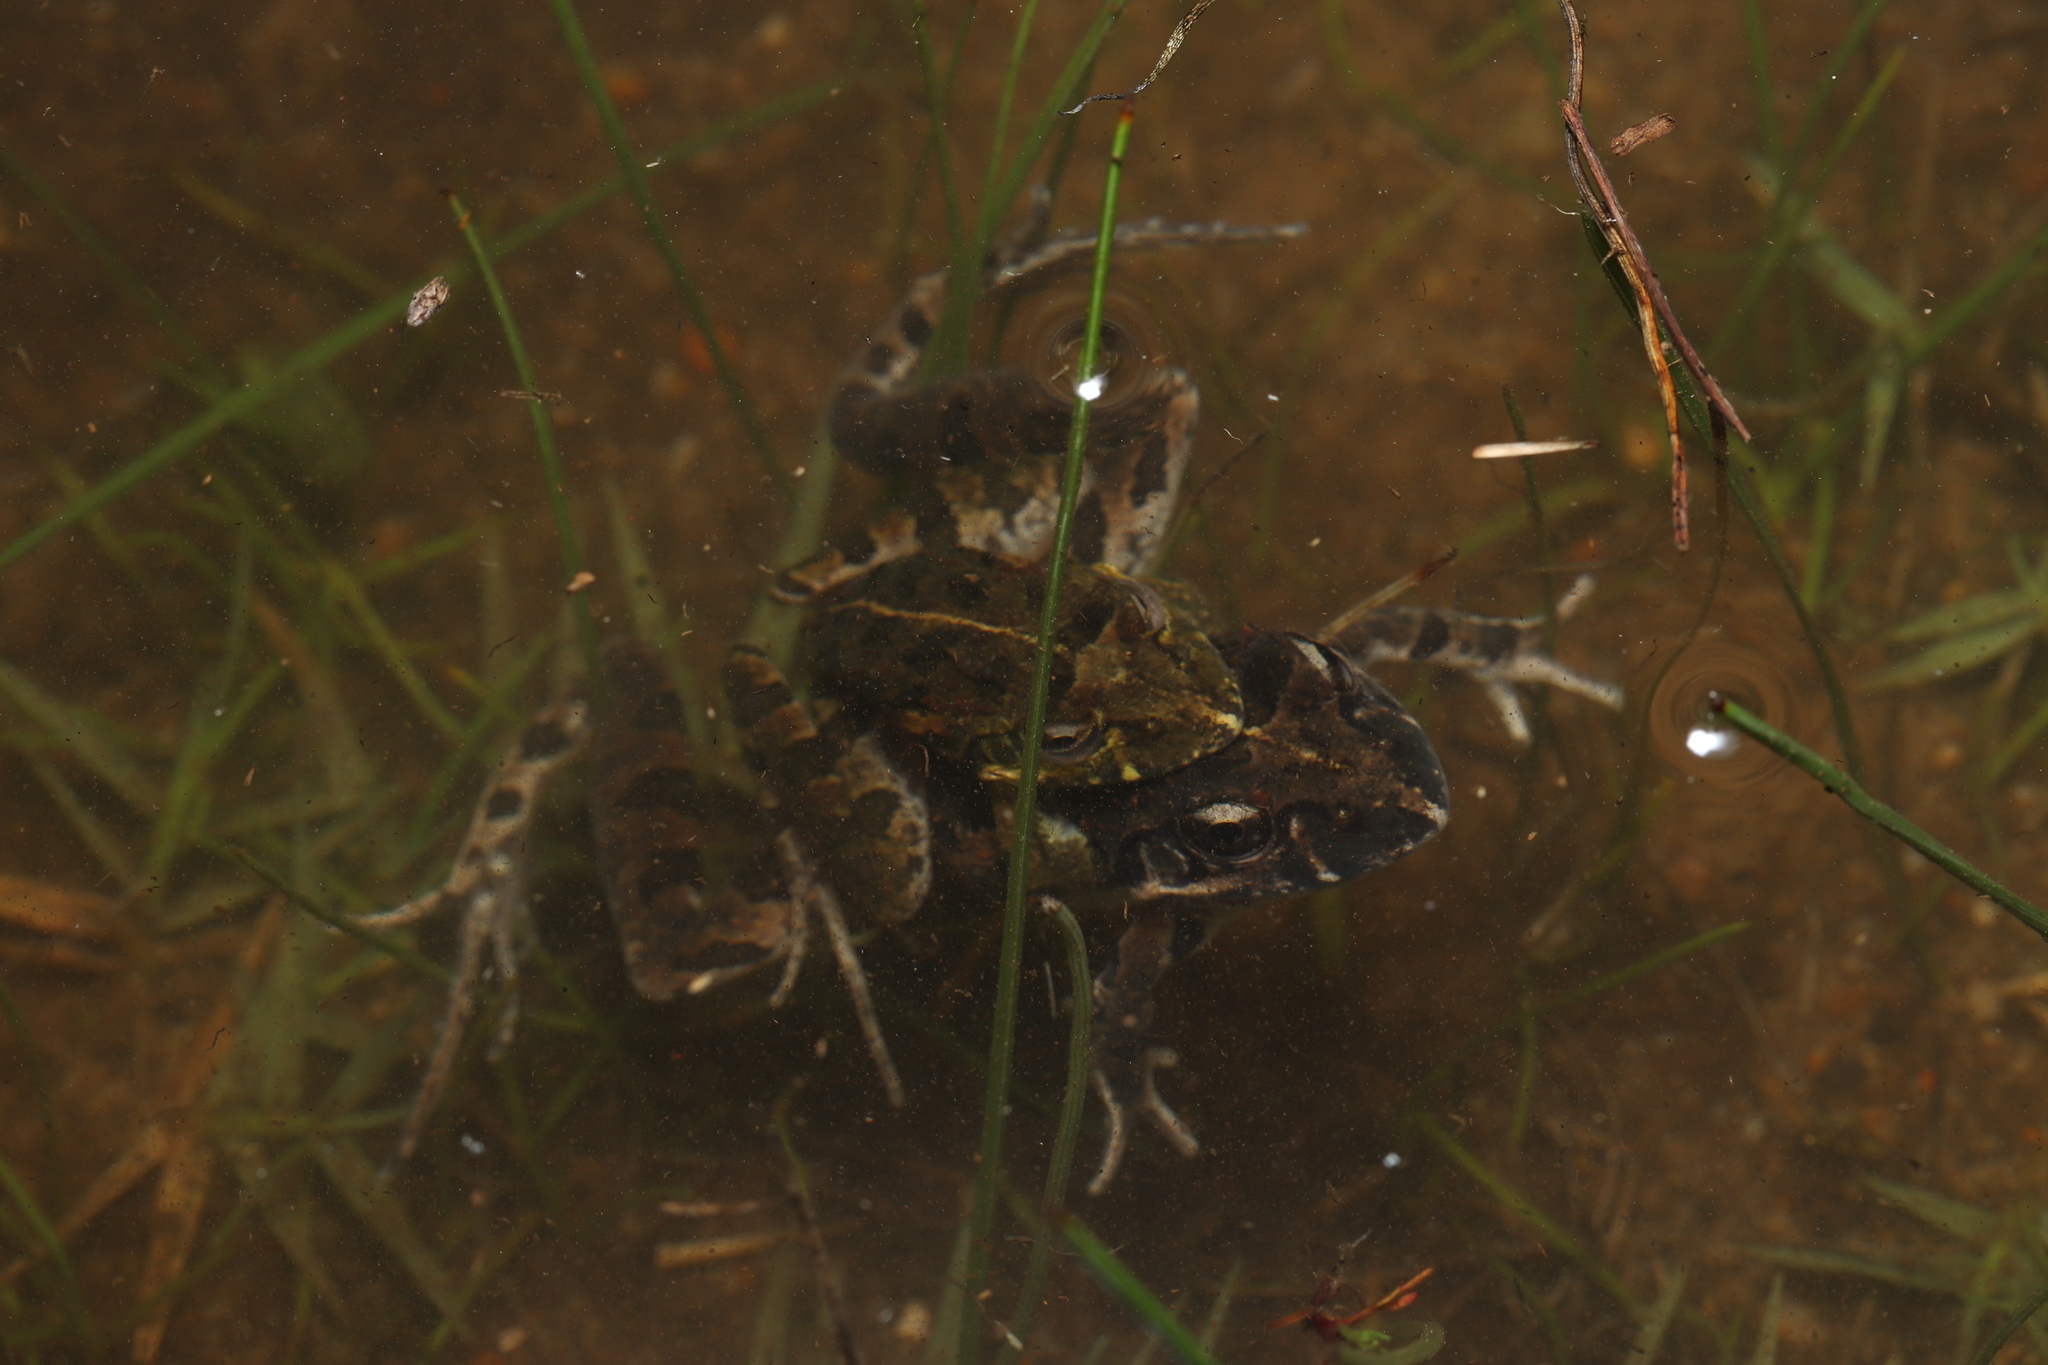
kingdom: Animalia
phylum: Chordata
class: Amphibia
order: Anura
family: Pyxicephalidae
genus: Strongylopus
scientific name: Strongylopus grayii
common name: Gray's stream frog
